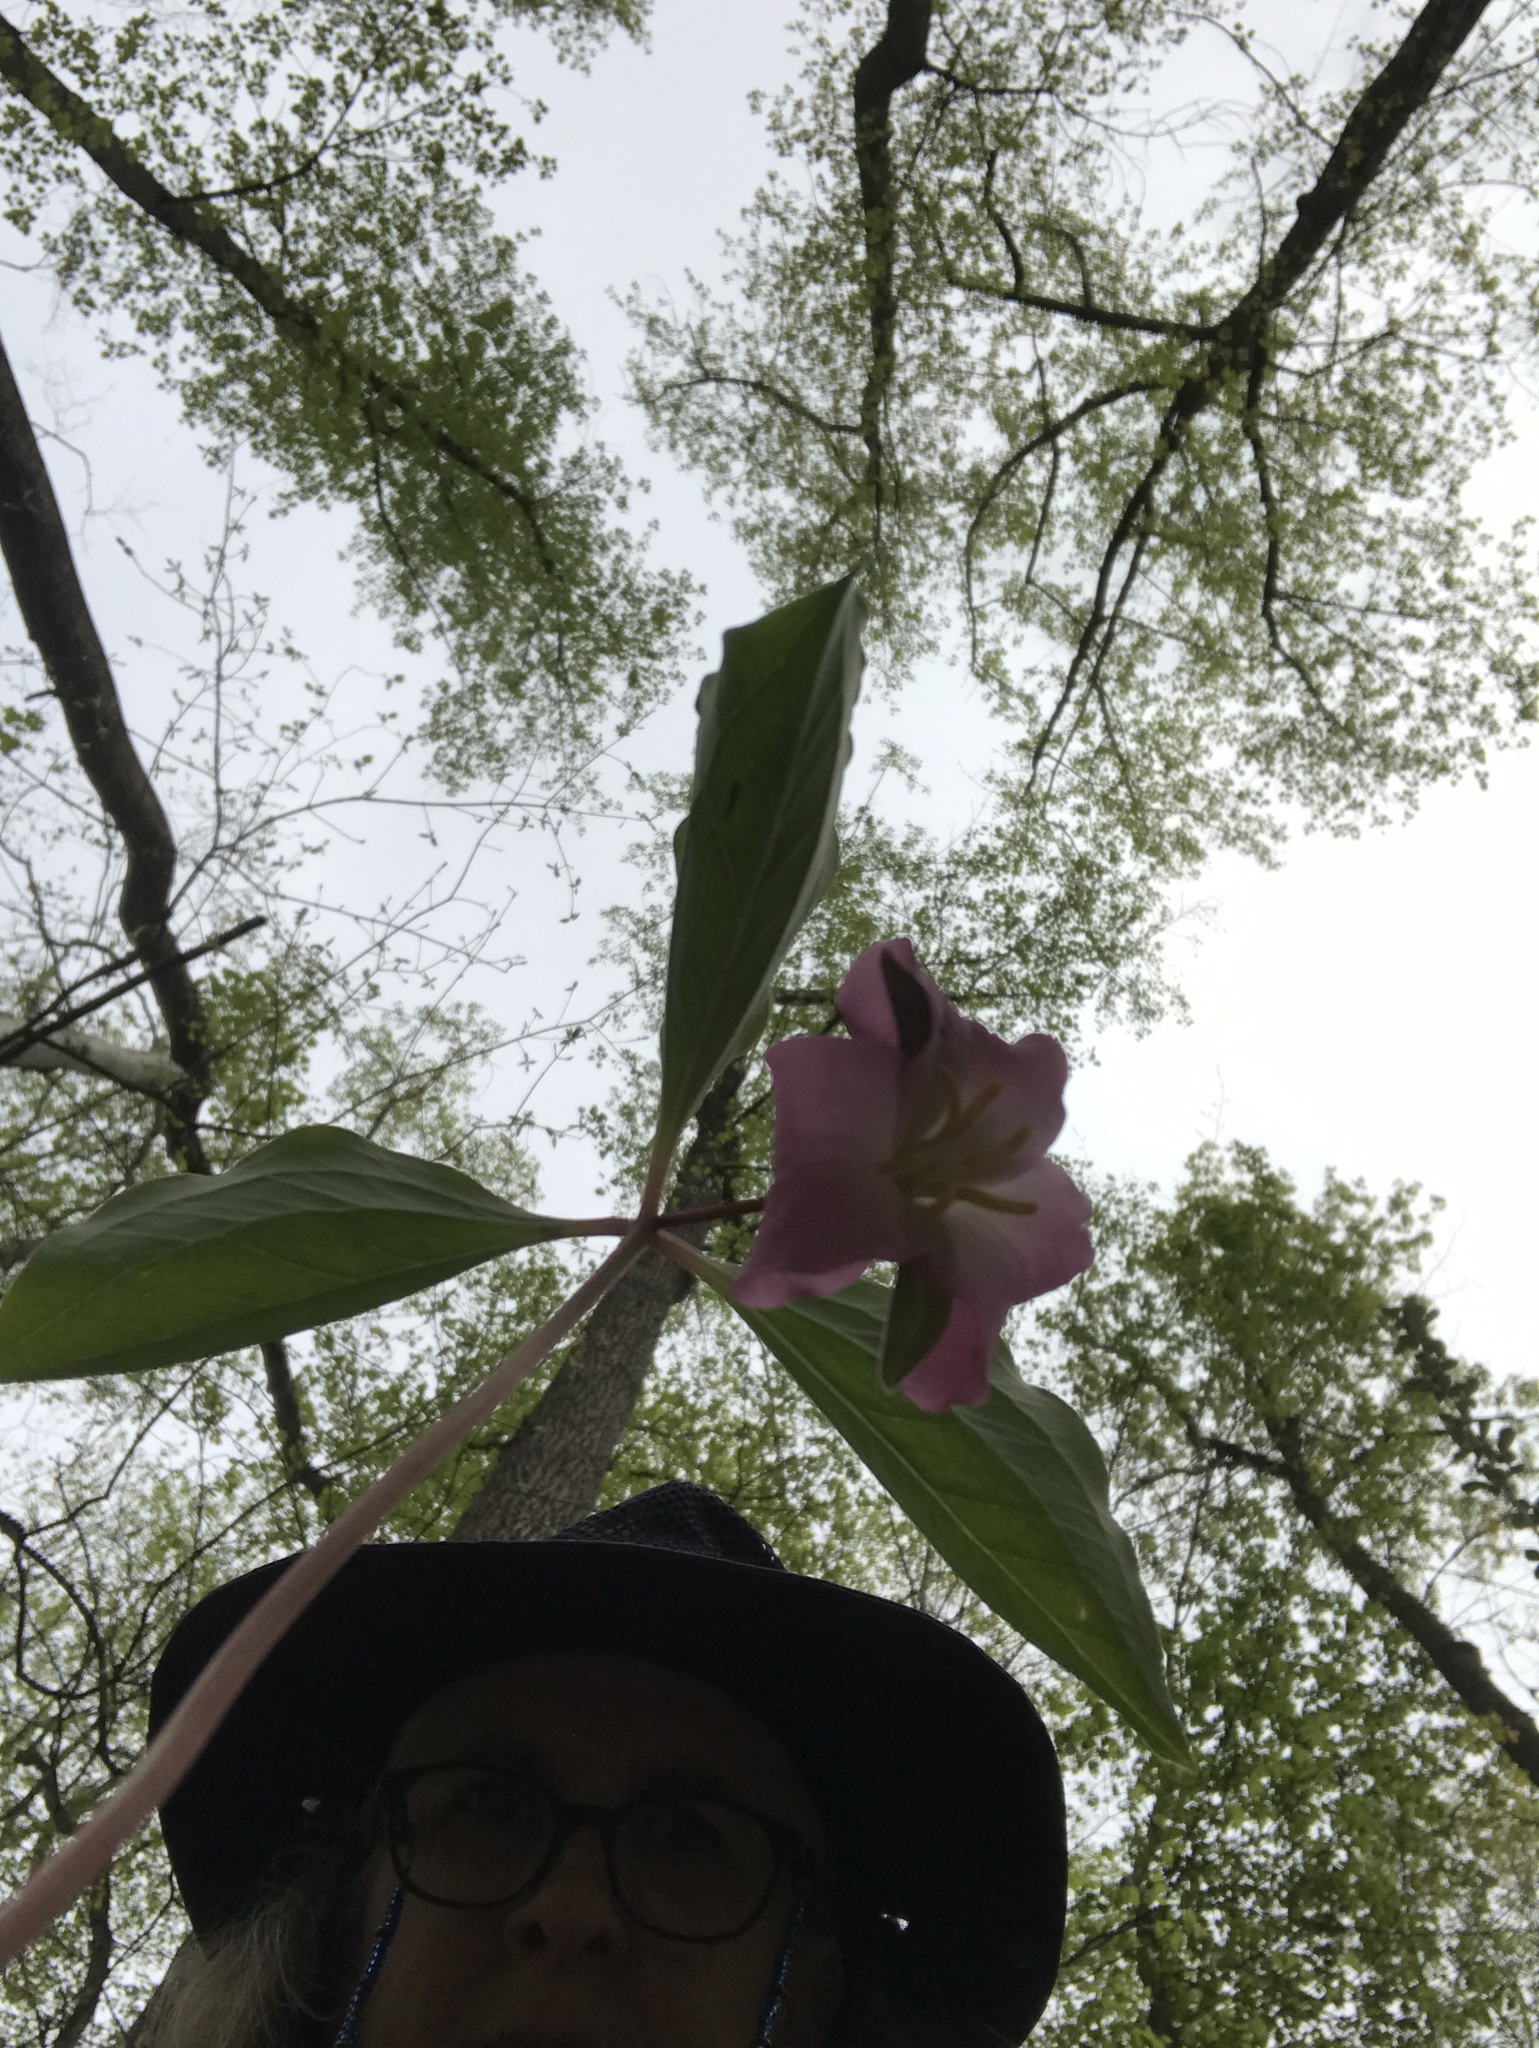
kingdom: Plantae
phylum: Tracheophyta
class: Liliopsida
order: Liliales
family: Melanthiaceae
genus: Trillium
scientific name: Trillium catesbaei
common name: Bashful trillium
